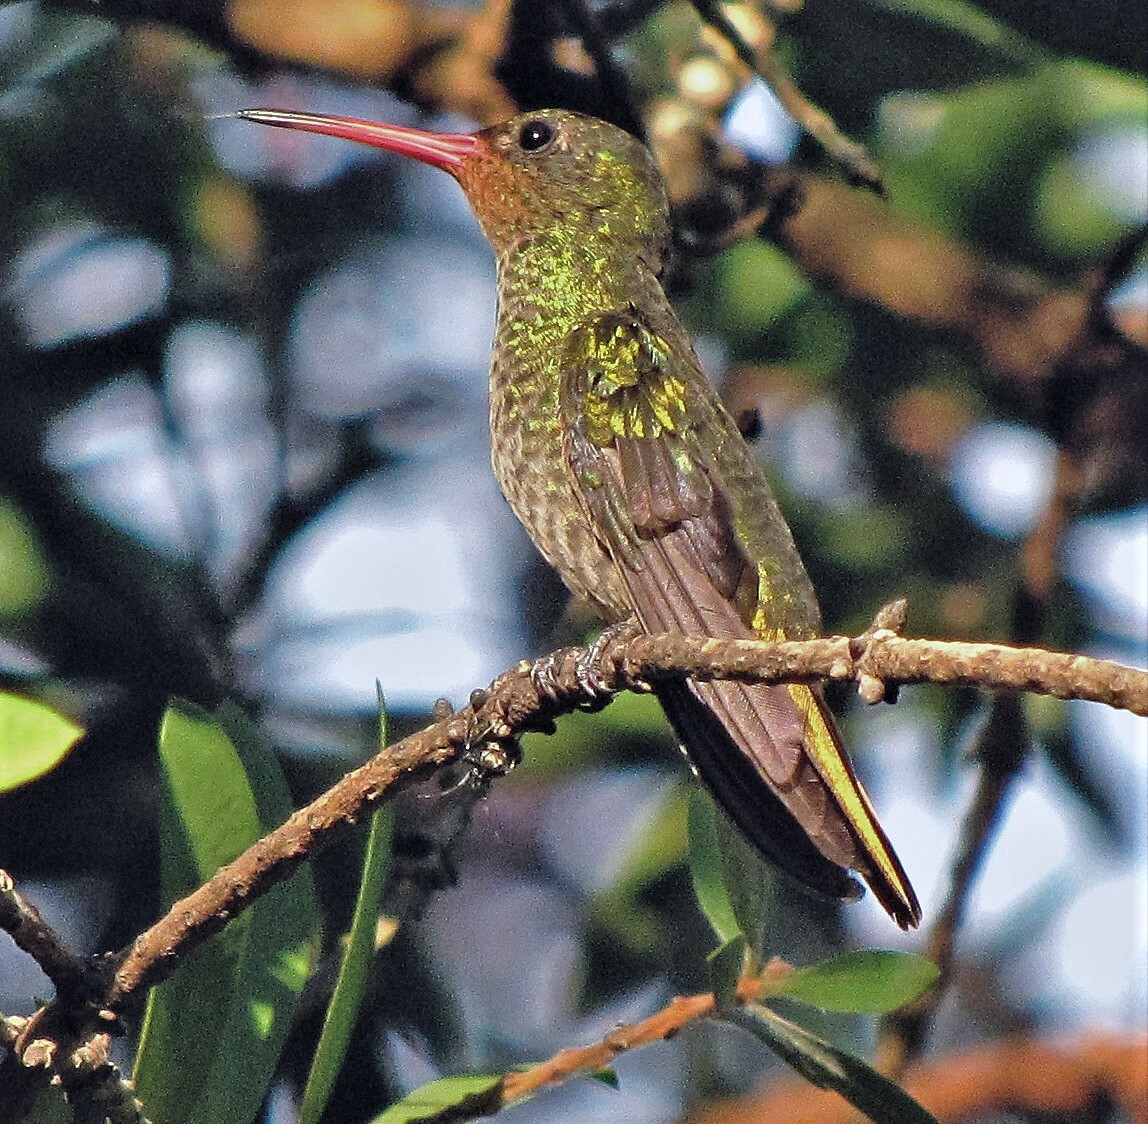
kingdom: Animalia
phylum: Chordata
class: Aves
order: Apodiformes
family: Trochilidae
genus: Hylocharis
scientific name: Hylocharis chrysura
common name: Gilded sapphire
